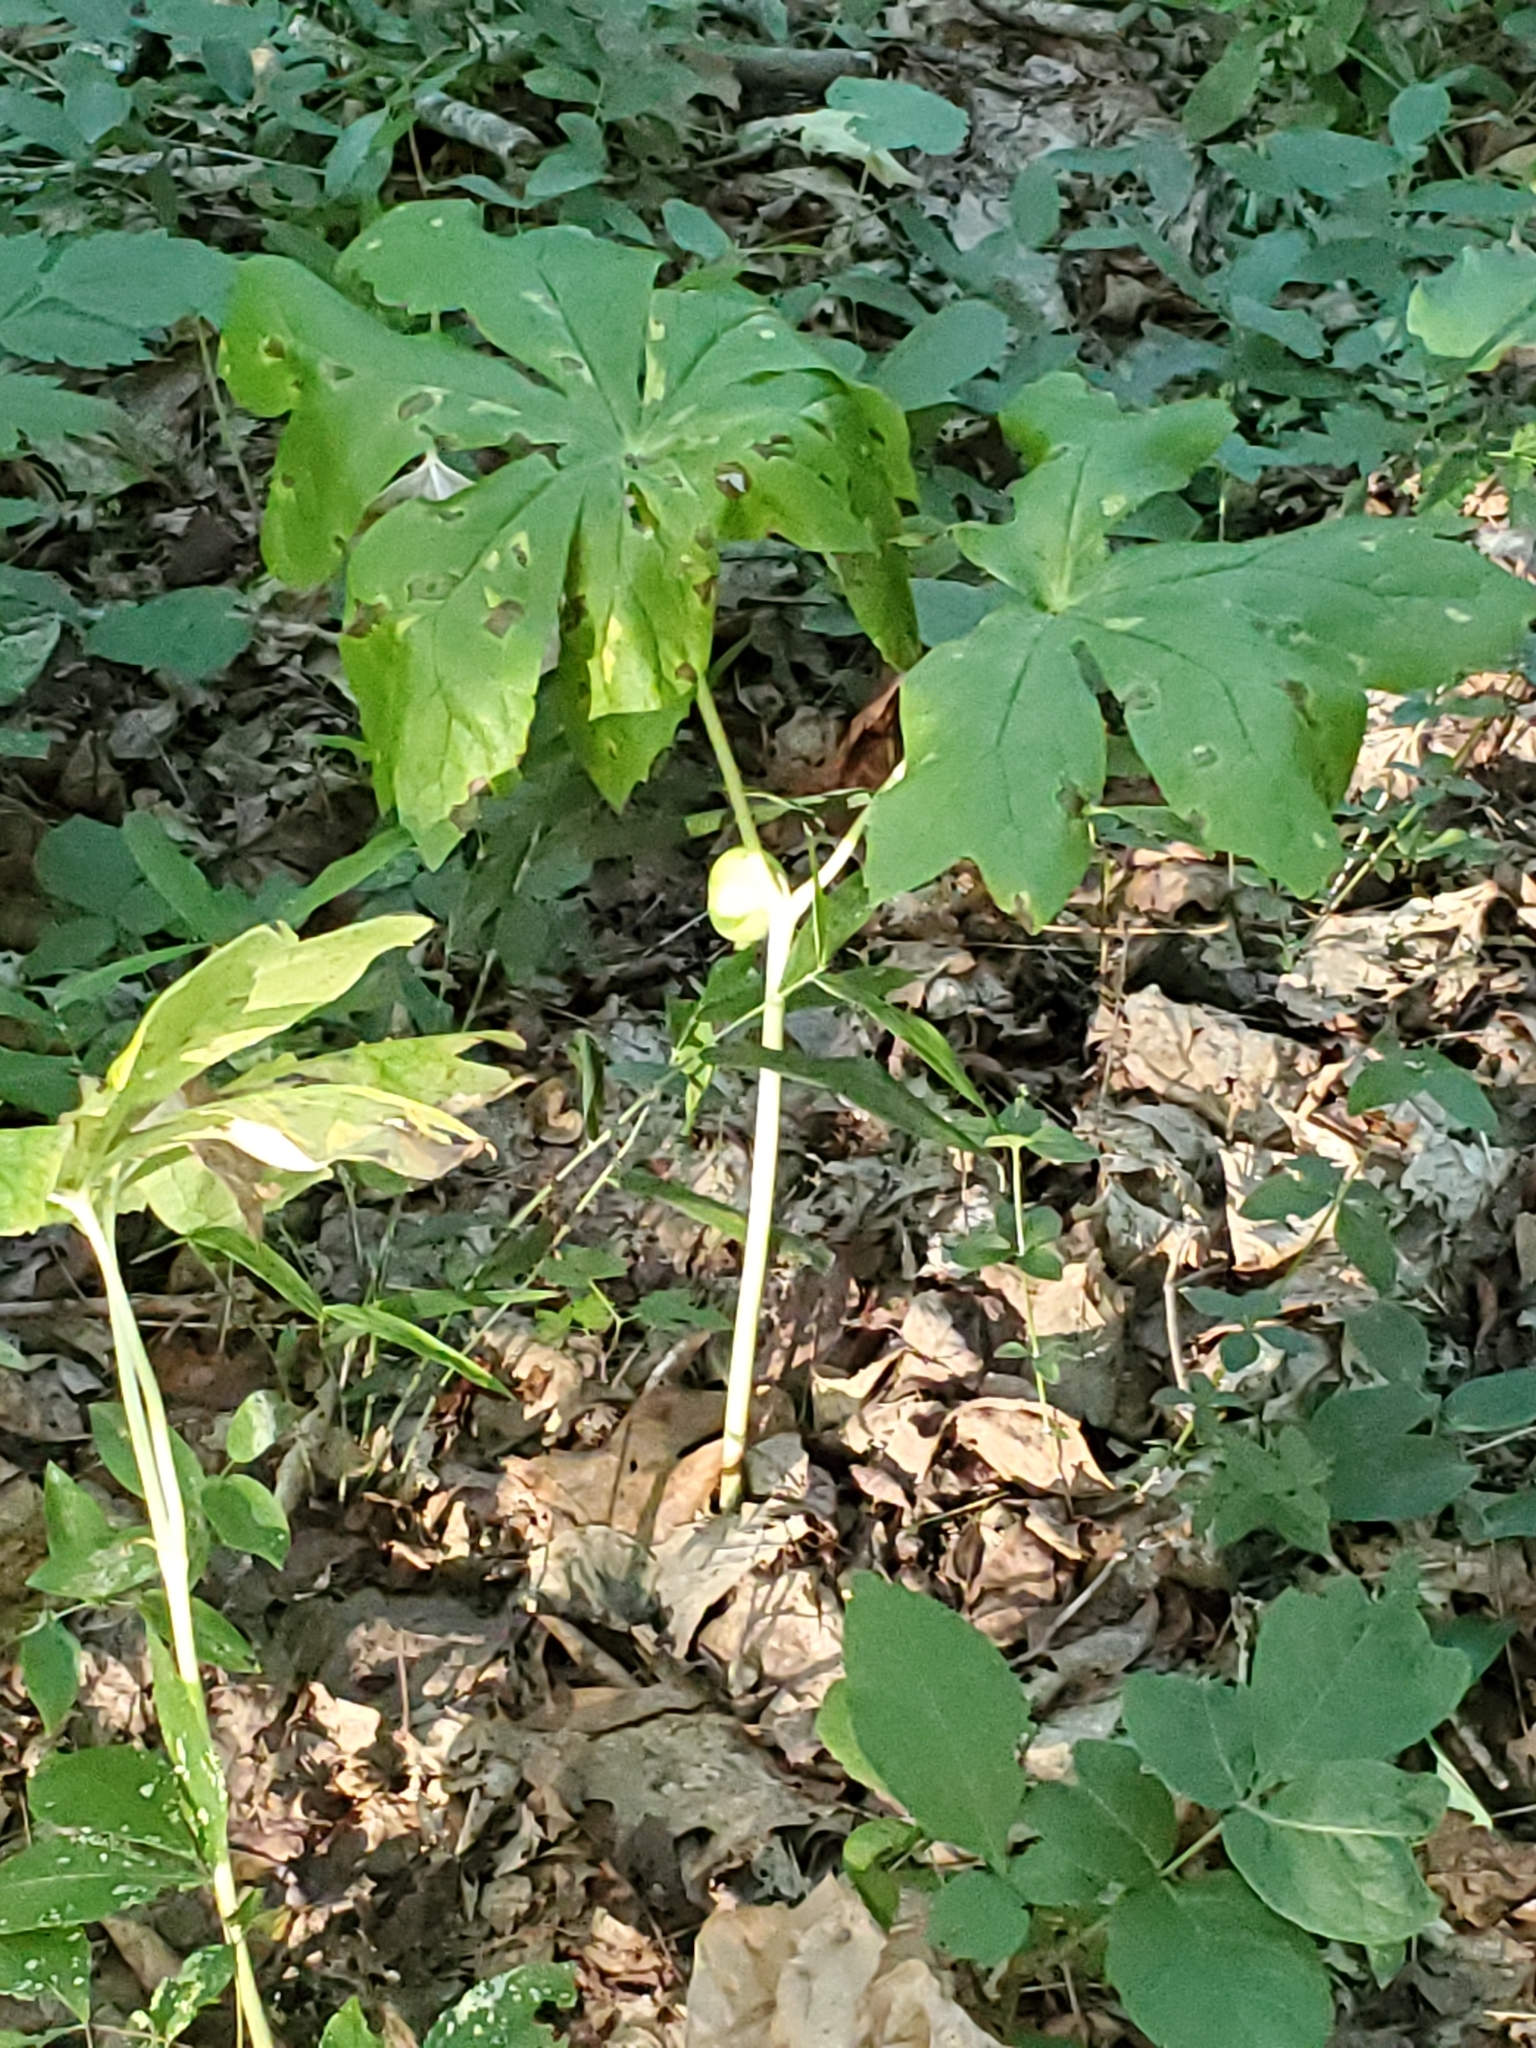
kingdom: Plantae
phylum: Tracheophyta
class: Magnoliopsida
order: Ranunculales
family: Berberidaceae
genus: Podophyllum
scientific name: Podophyllum peltatum
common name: Wild mandrake
